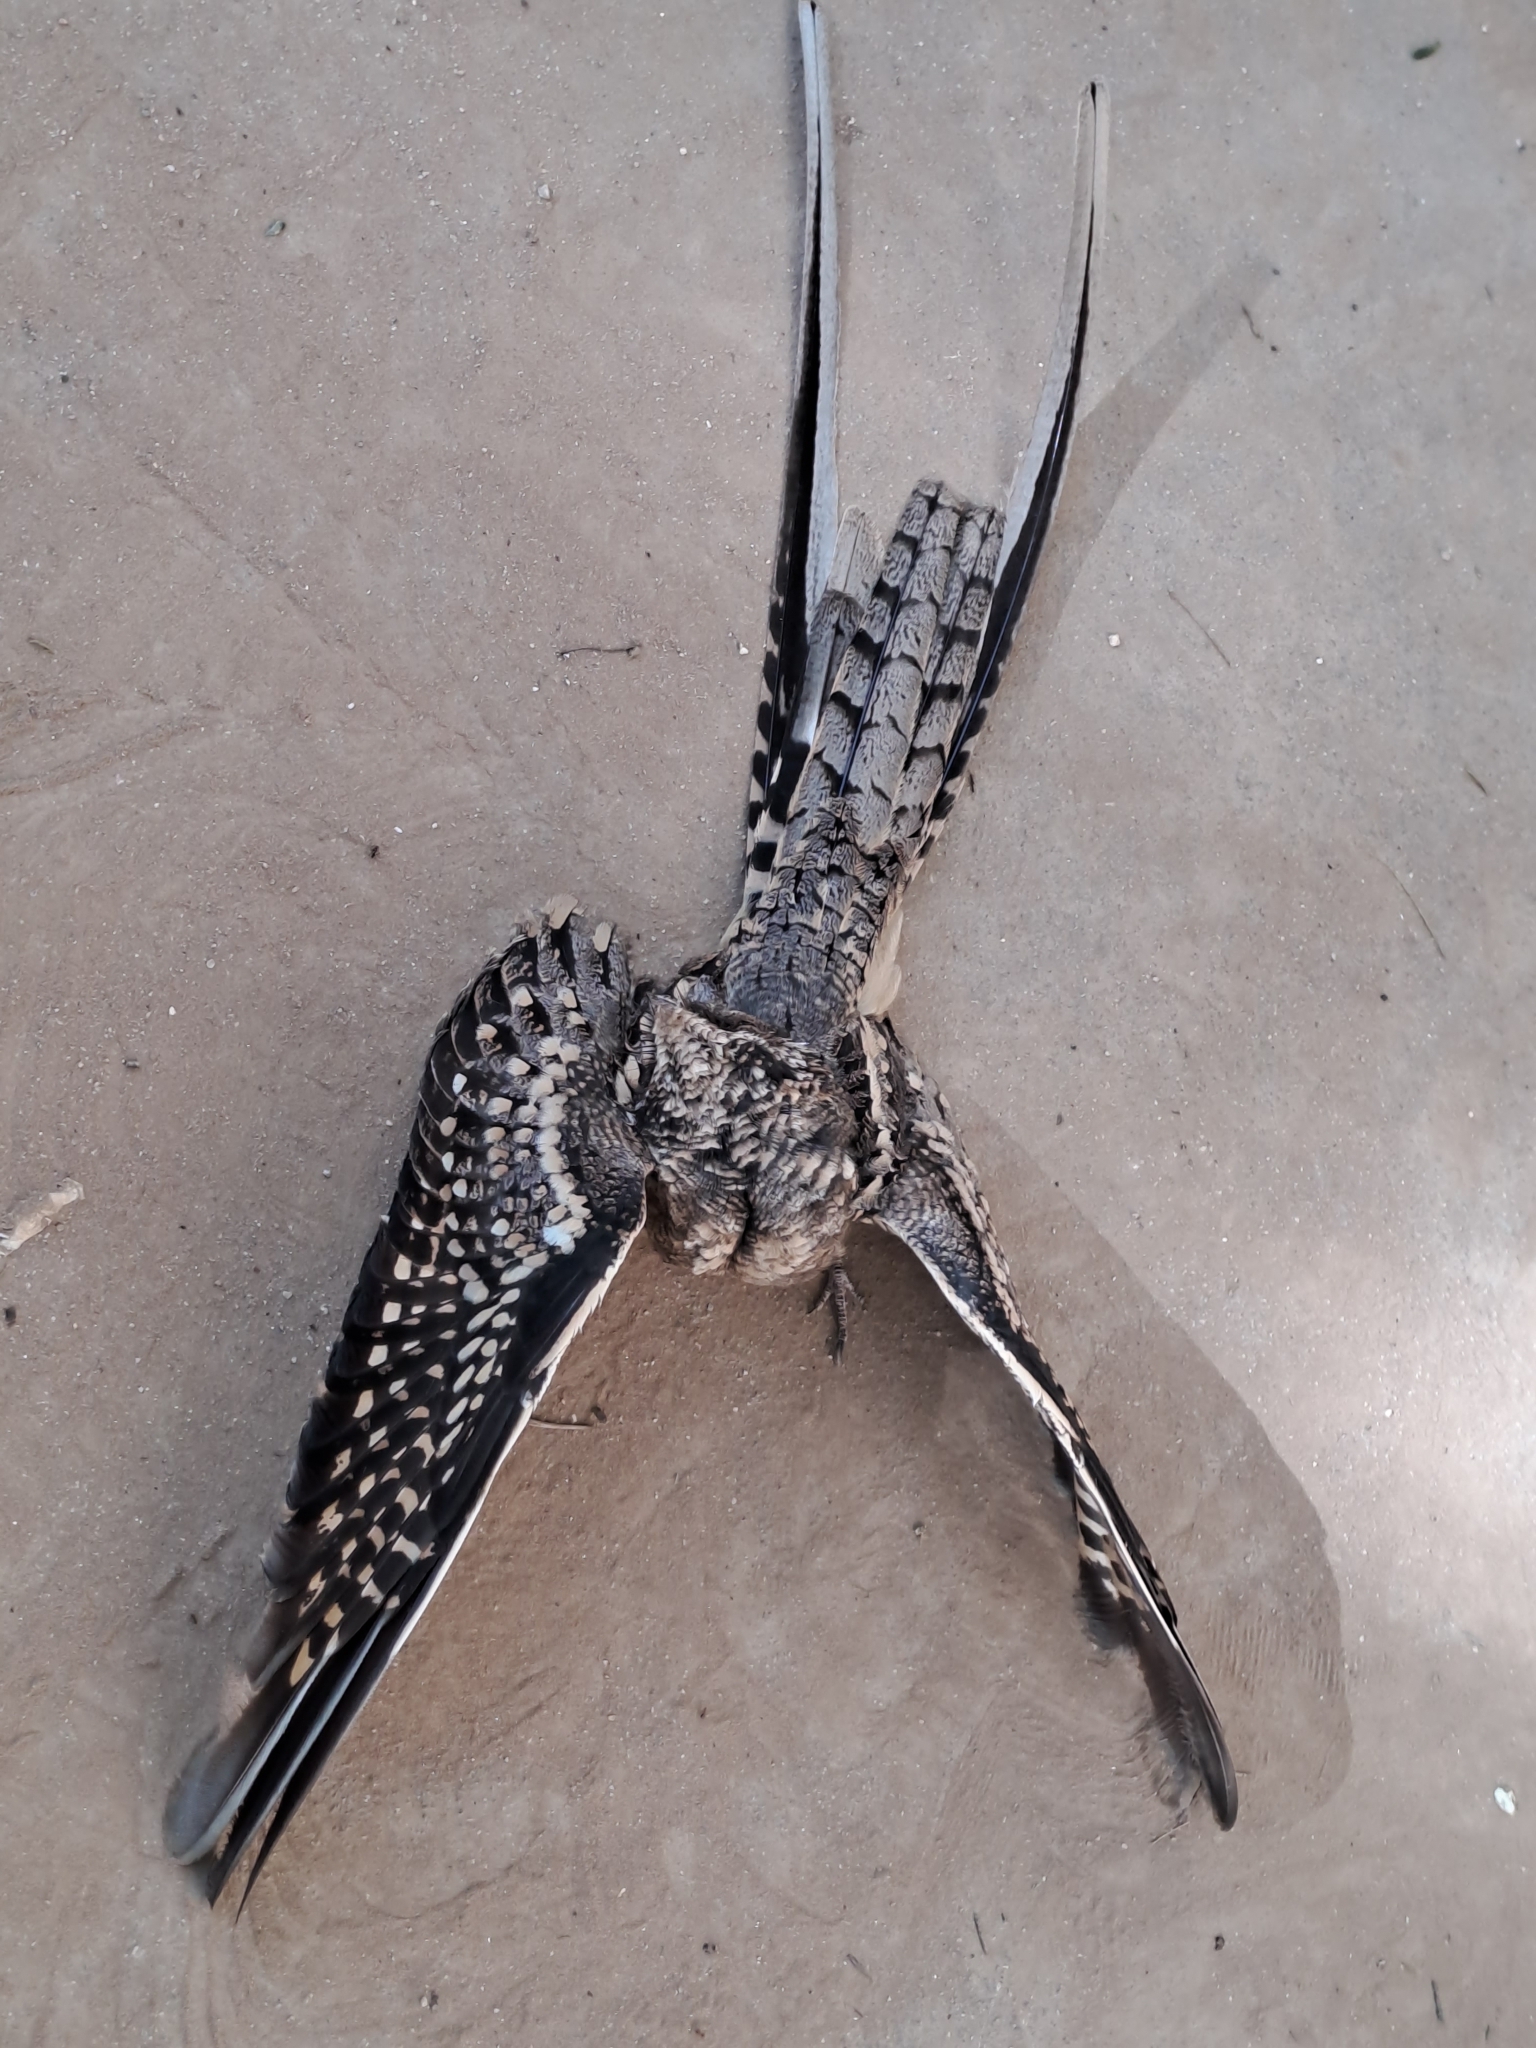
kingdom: Animalia
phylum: Chordata
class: Aves
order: Caprimulgiformes
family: Caprimulgidae
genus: Hydropsalis
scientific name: Hydropsalis torquata
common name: Scissor-tailed nightjar
